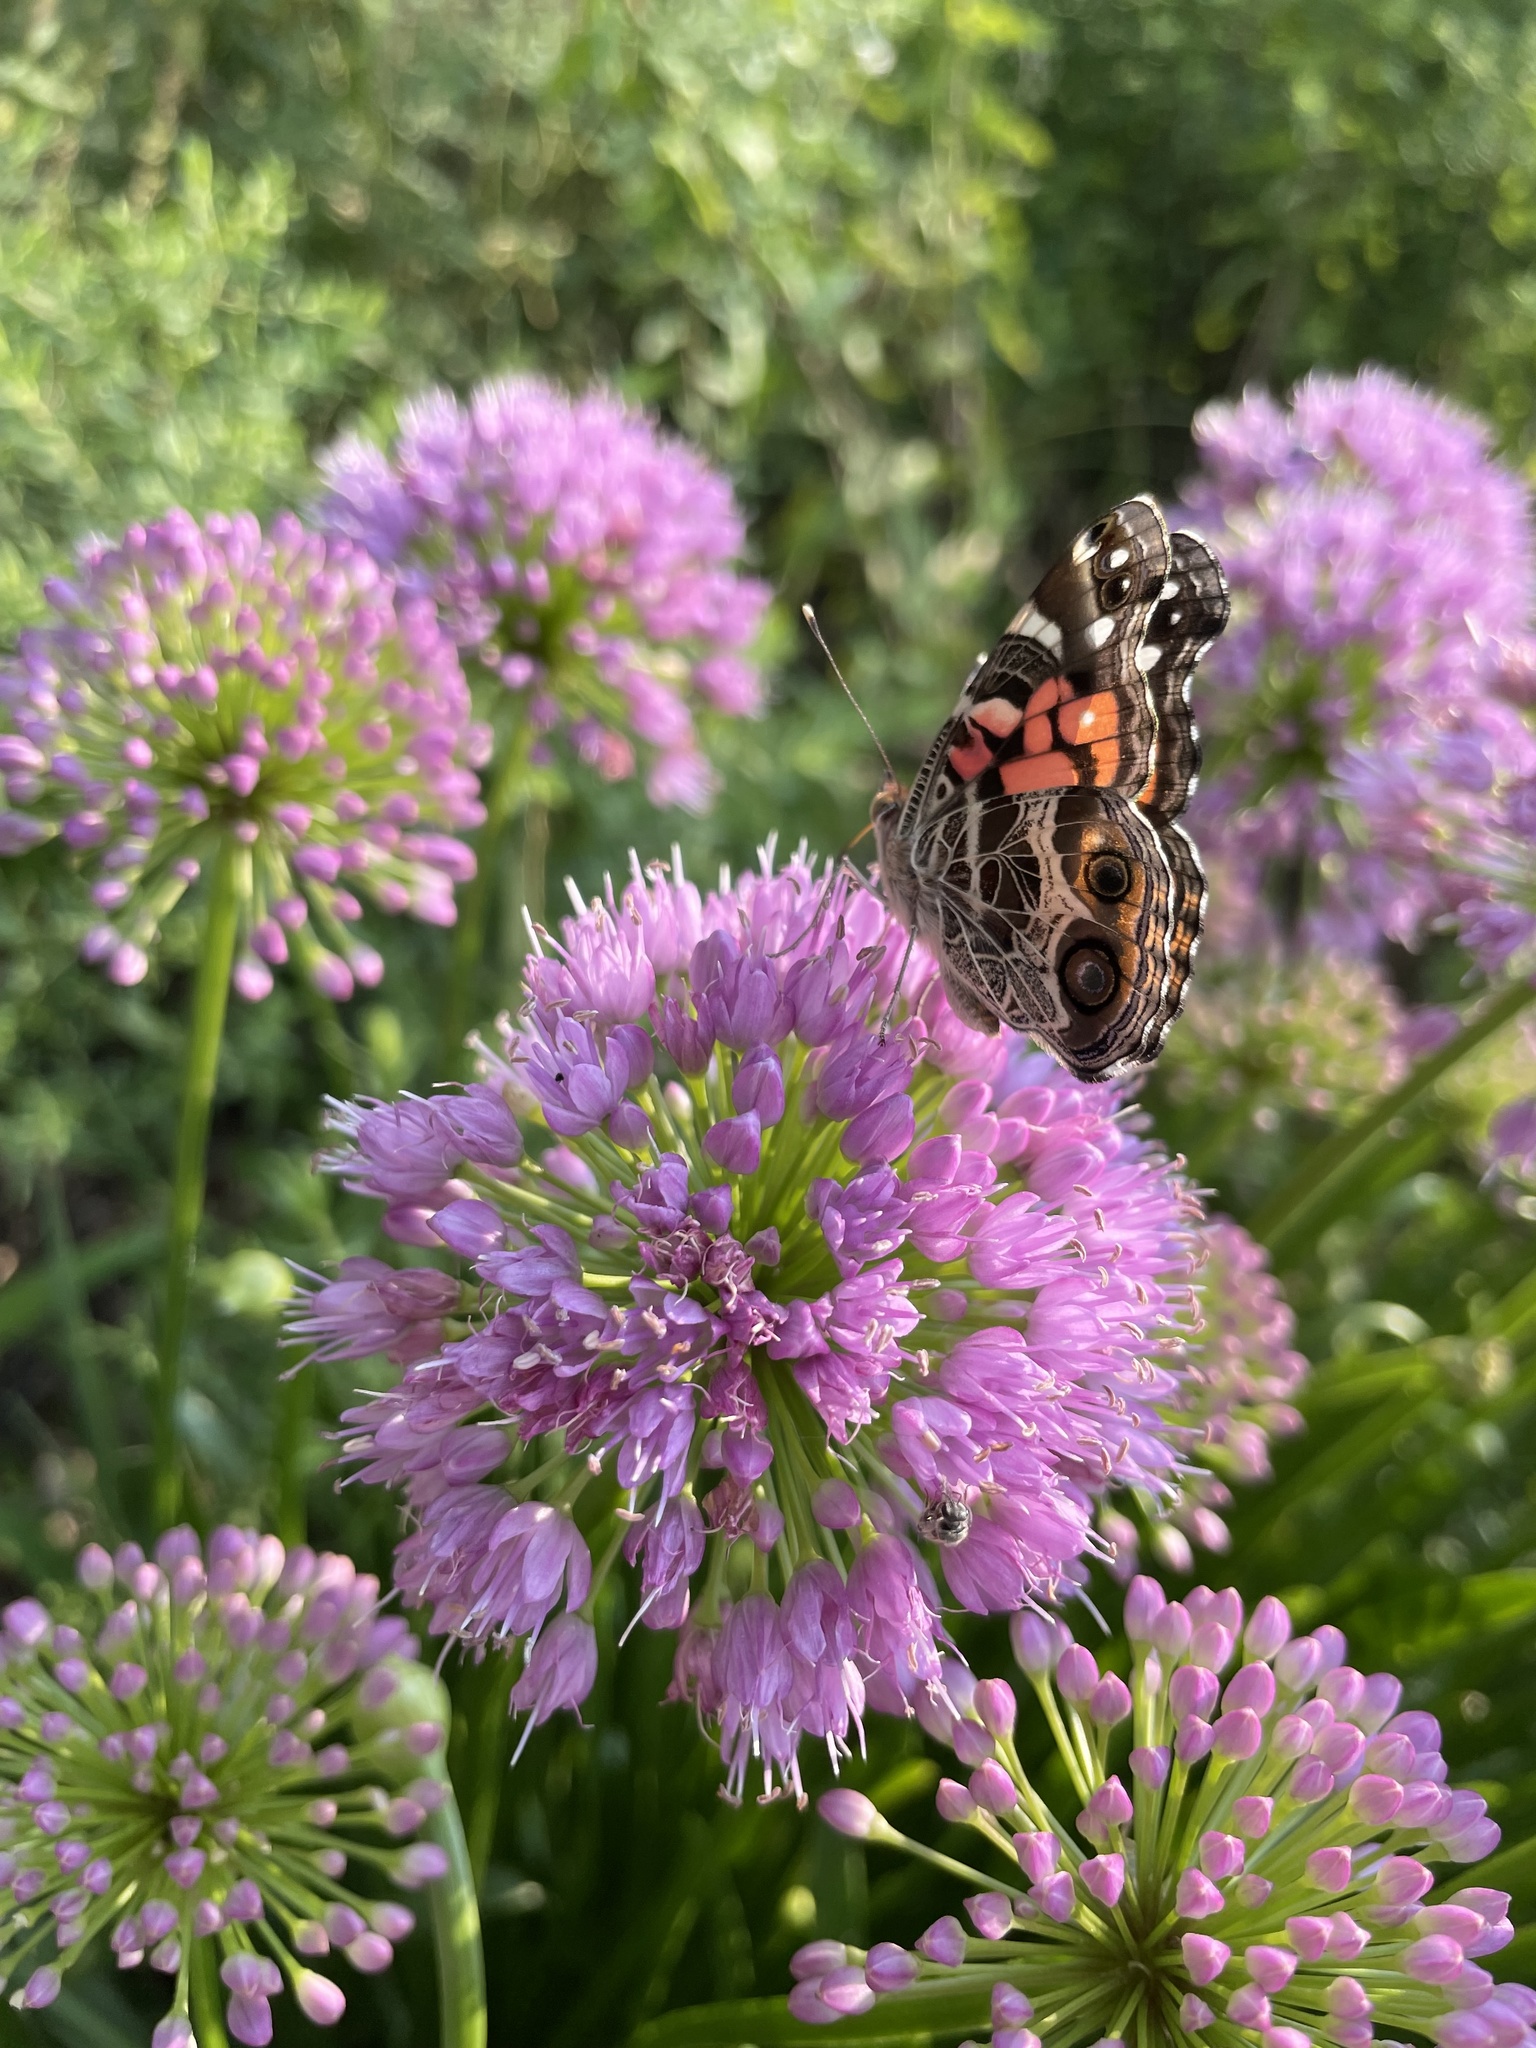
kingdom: Animalia
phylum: Arthropoda
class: Insecta
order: Lepidoptera
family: Nymphalidae
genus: Vanessa
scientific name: Vanessa virginiensis
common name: American lady
